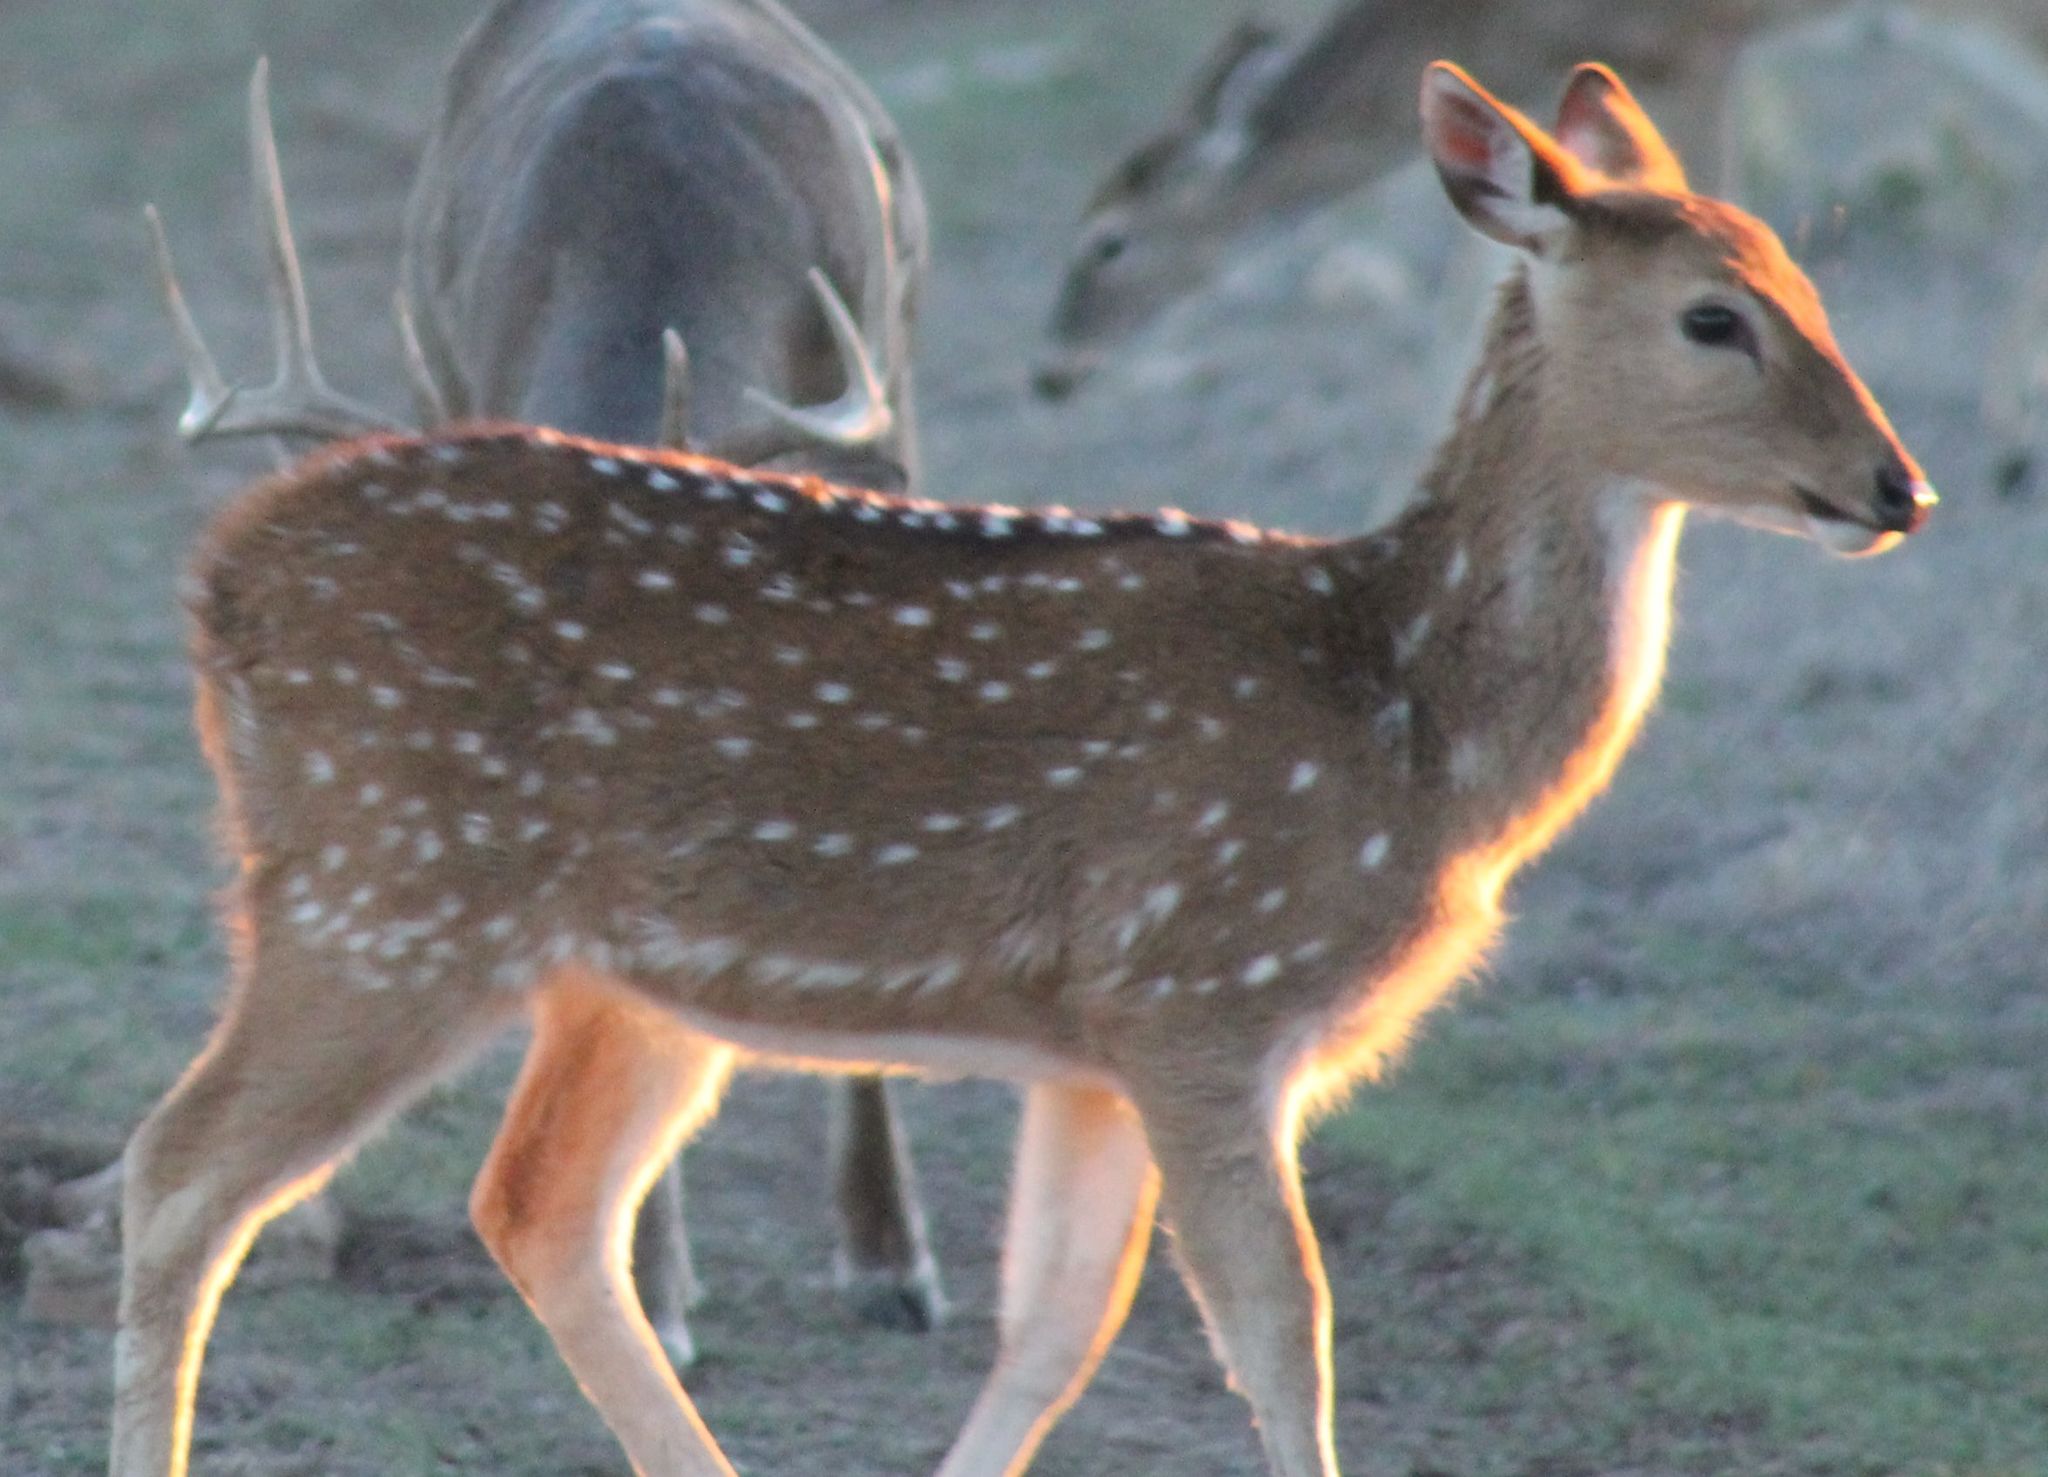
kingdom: Animalia
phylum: Chordata
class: Mammalia
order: Artiodactyla
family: Cervidae
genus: Axis
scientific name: Axis axis
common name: Chital
